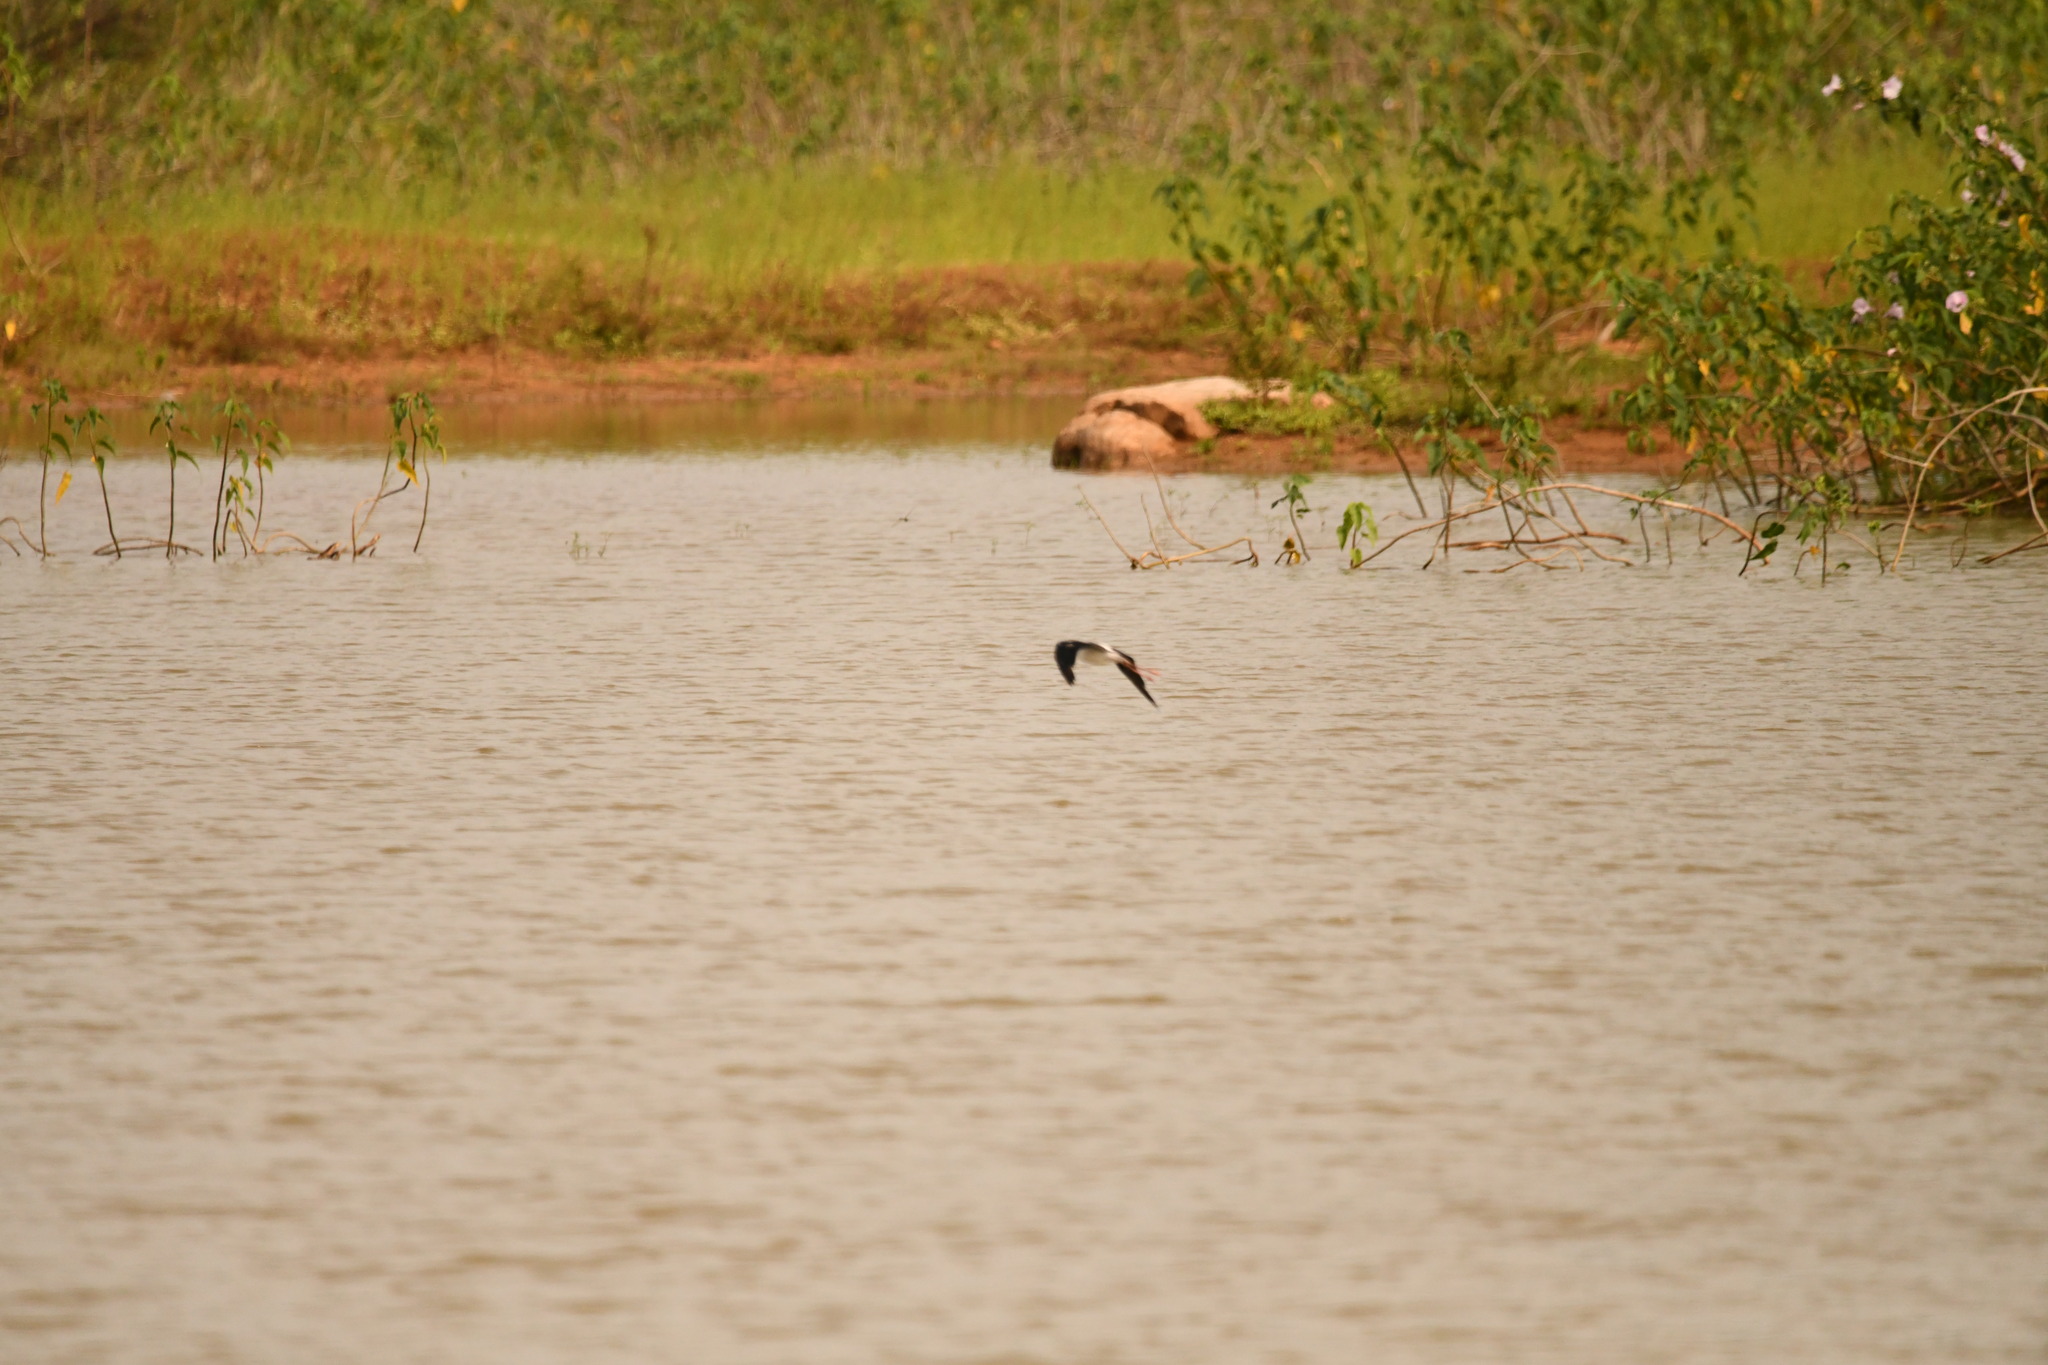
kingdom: Animalia
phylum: Chordata
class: Aves
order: Charadriiformes
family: Recurvirostridae
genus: Himantopus
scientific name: Himantopus himantopus
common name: Black-winged stilt
